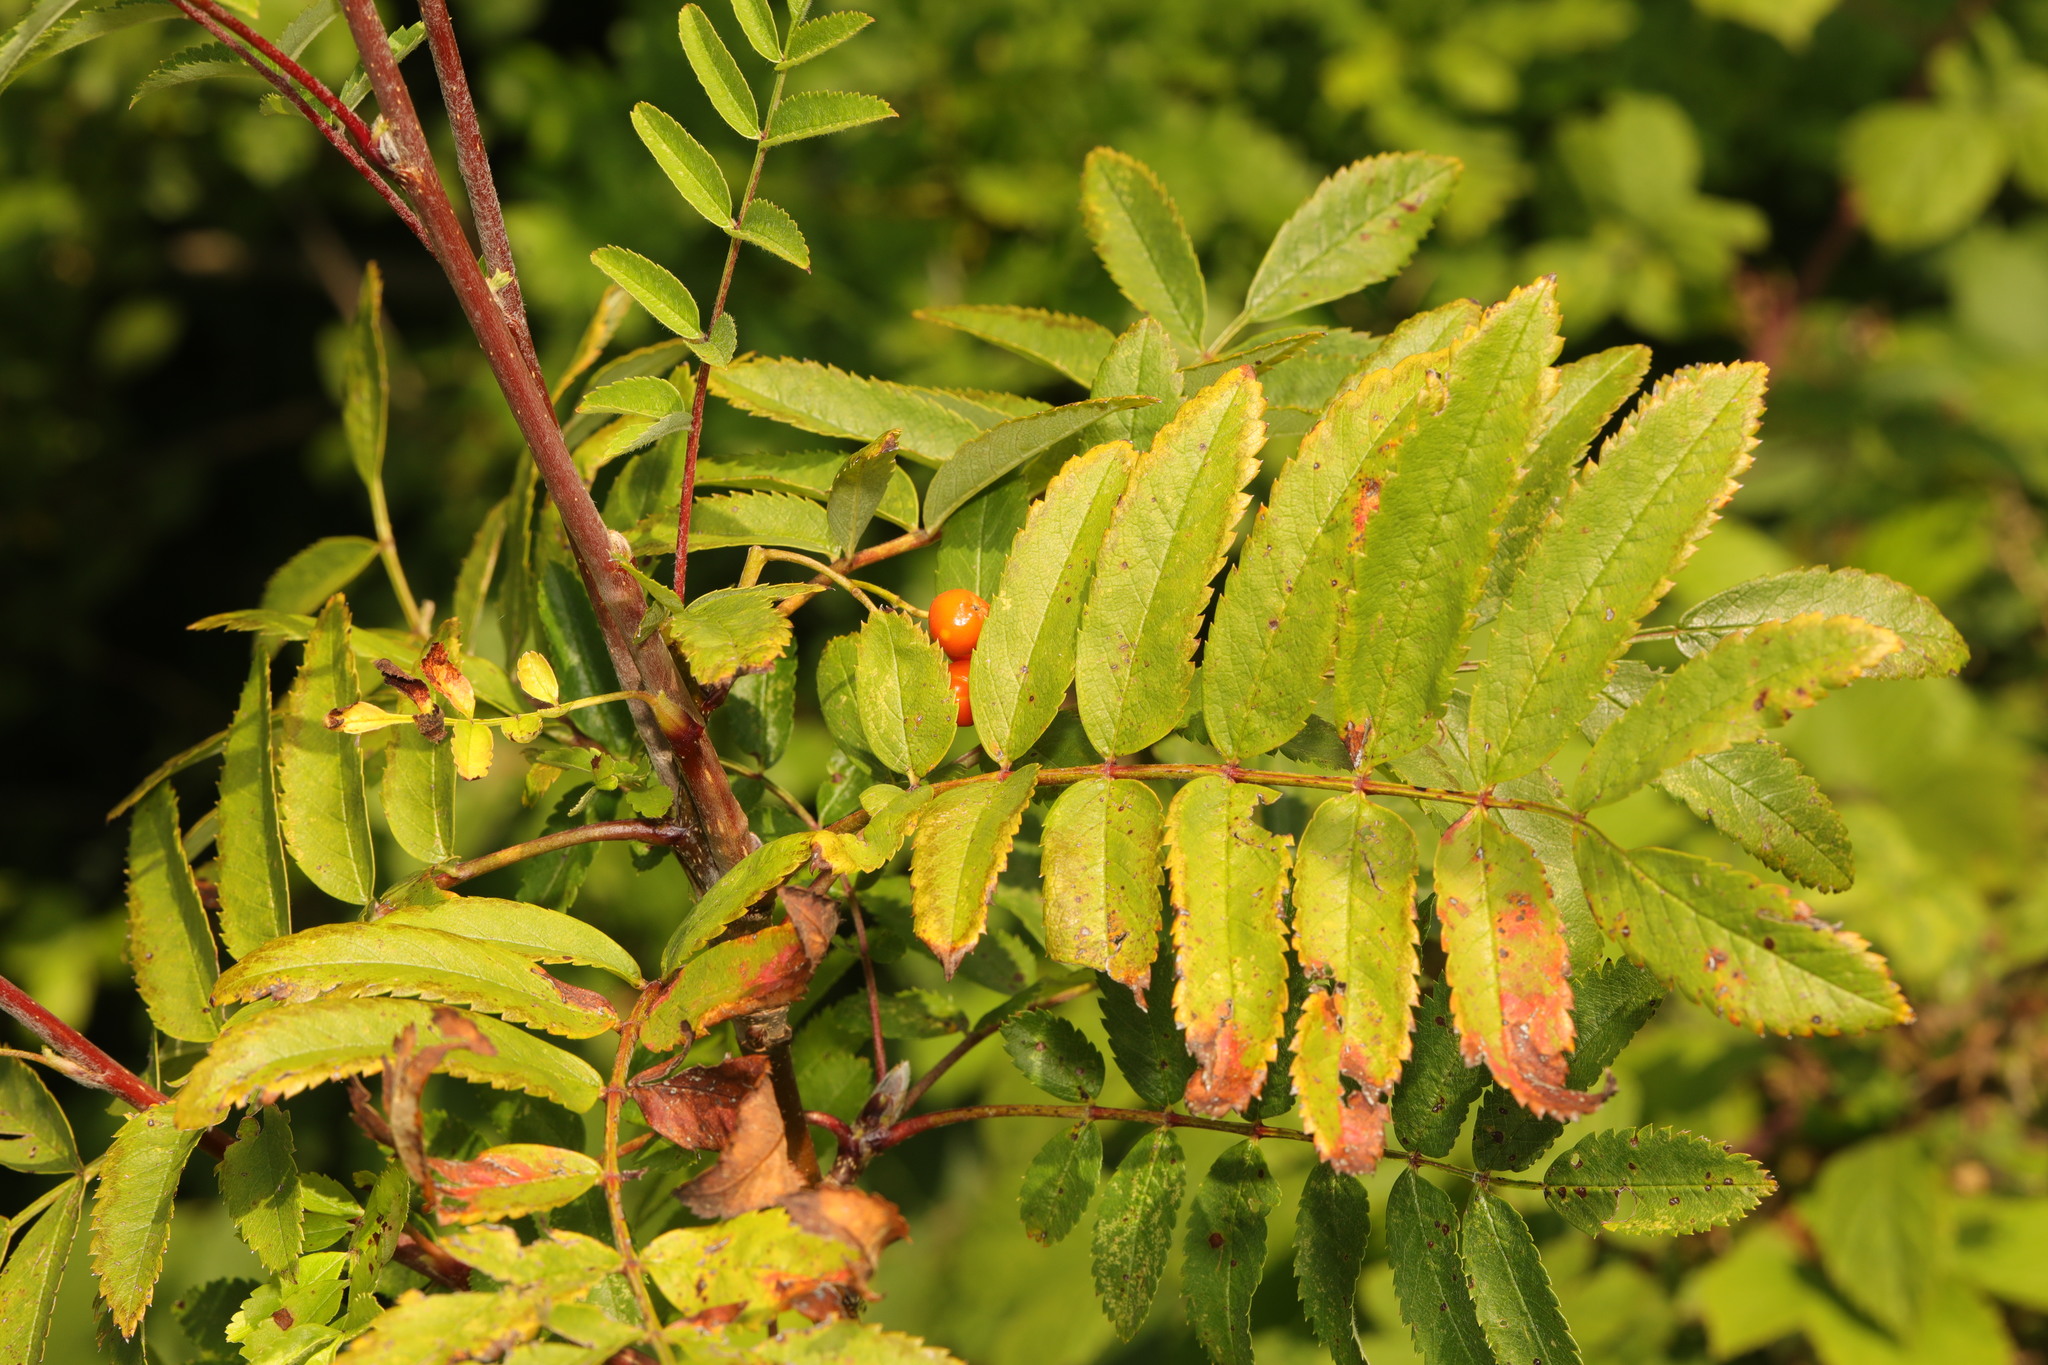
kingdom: Plantae
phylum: Tracheophyta
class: Magnoliopsida
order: Rosales
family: Rosaceae
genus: Sorbus
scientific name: Sorbus aucuparia
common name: Rowan
